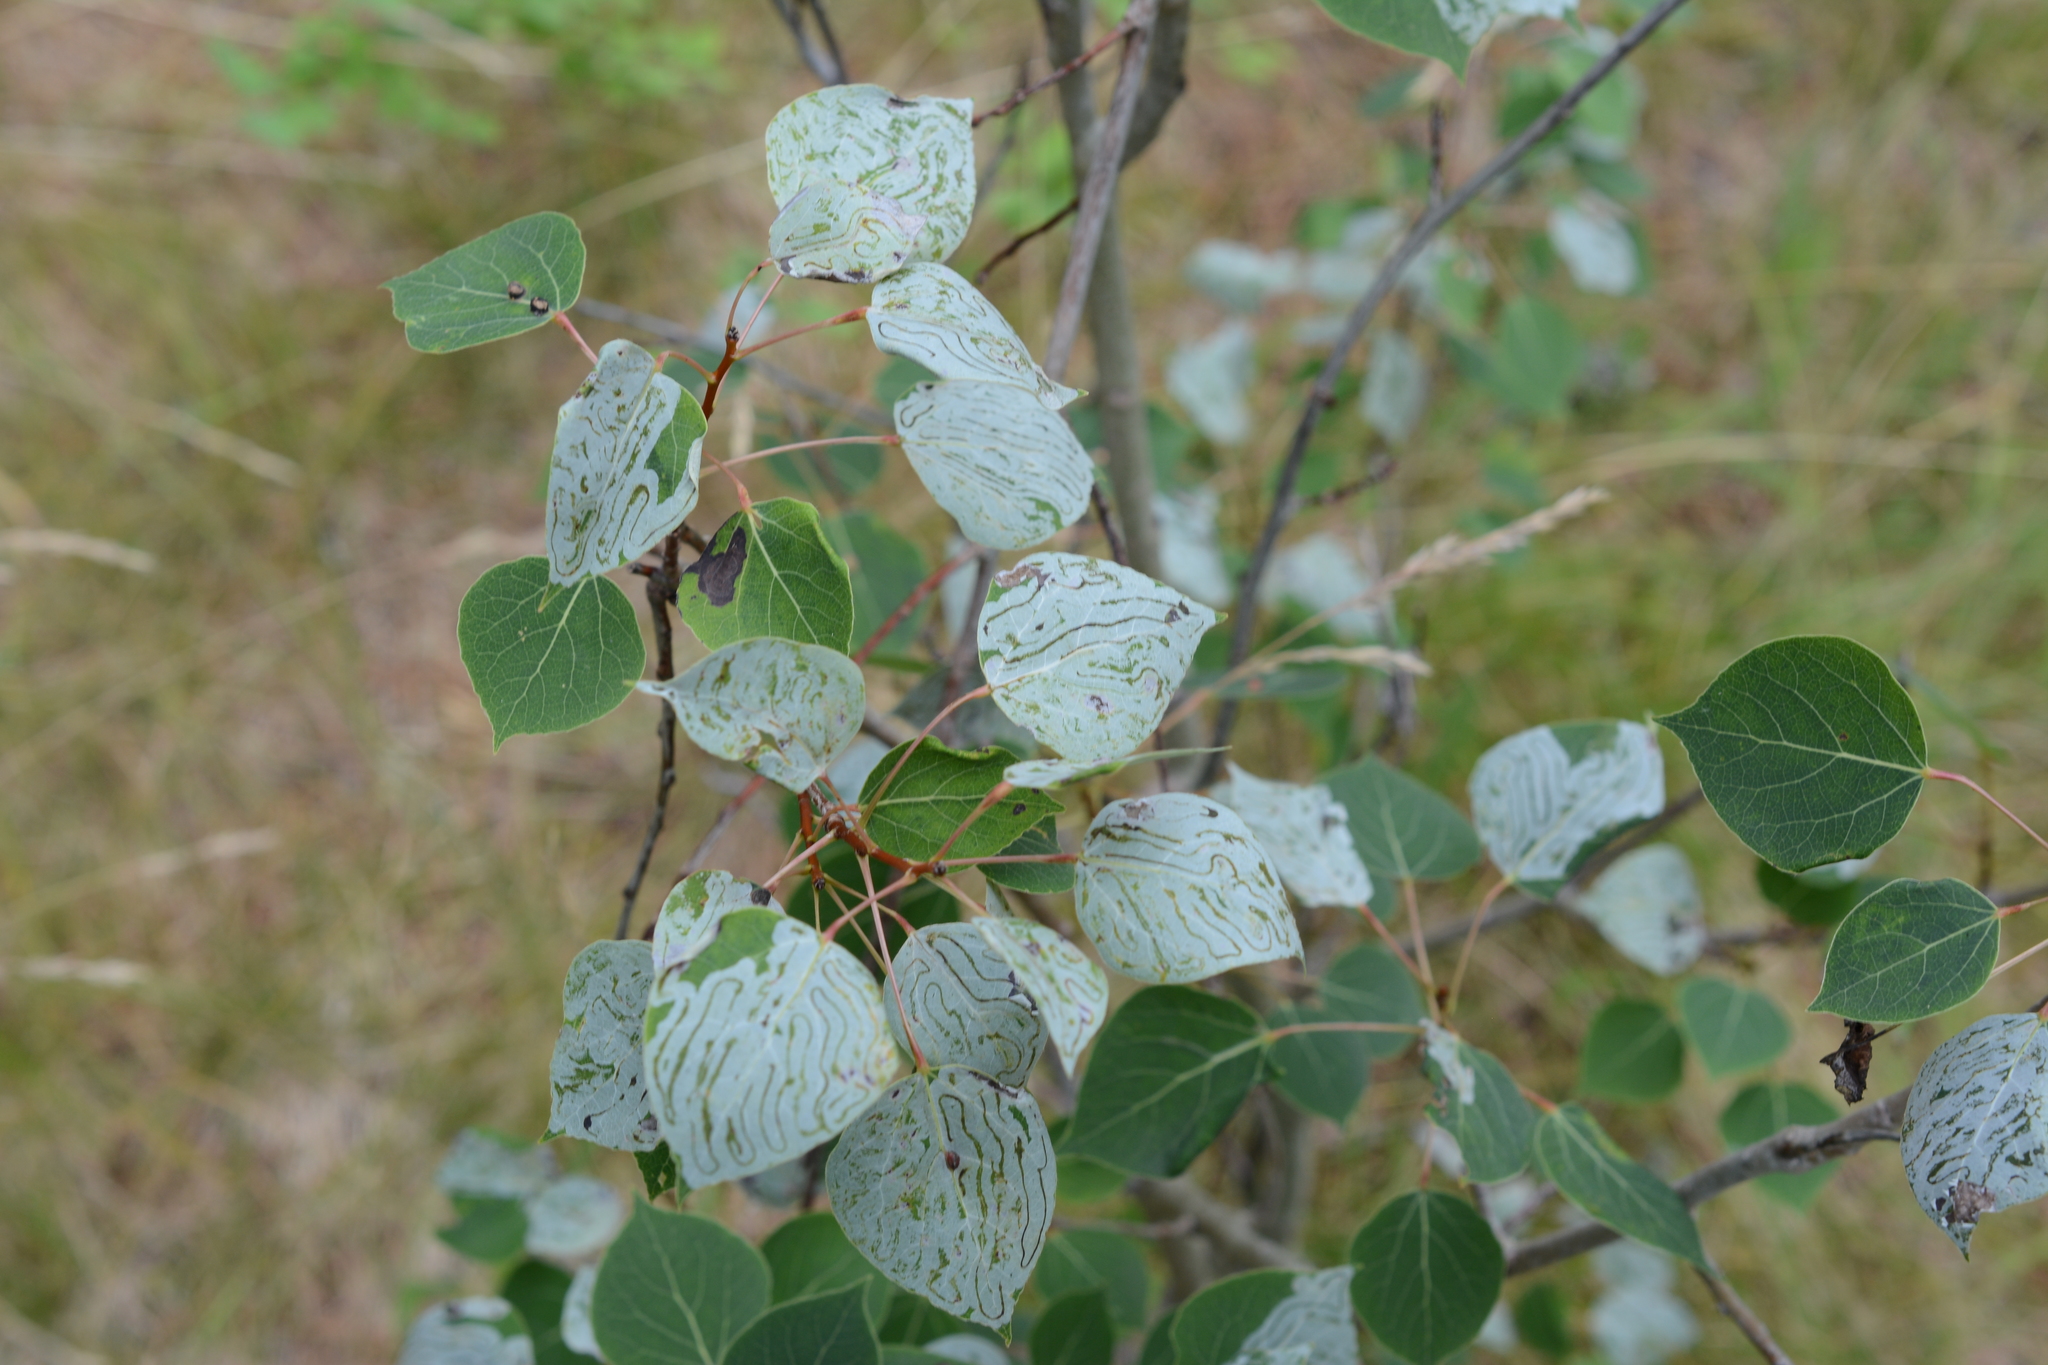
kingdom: Plantae
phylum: Tracheophyta
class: Magnoliopsida
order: Malpighiales
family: Salicaceae
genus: Populus
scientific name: Populus tremuloides
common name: Quaking aspen
